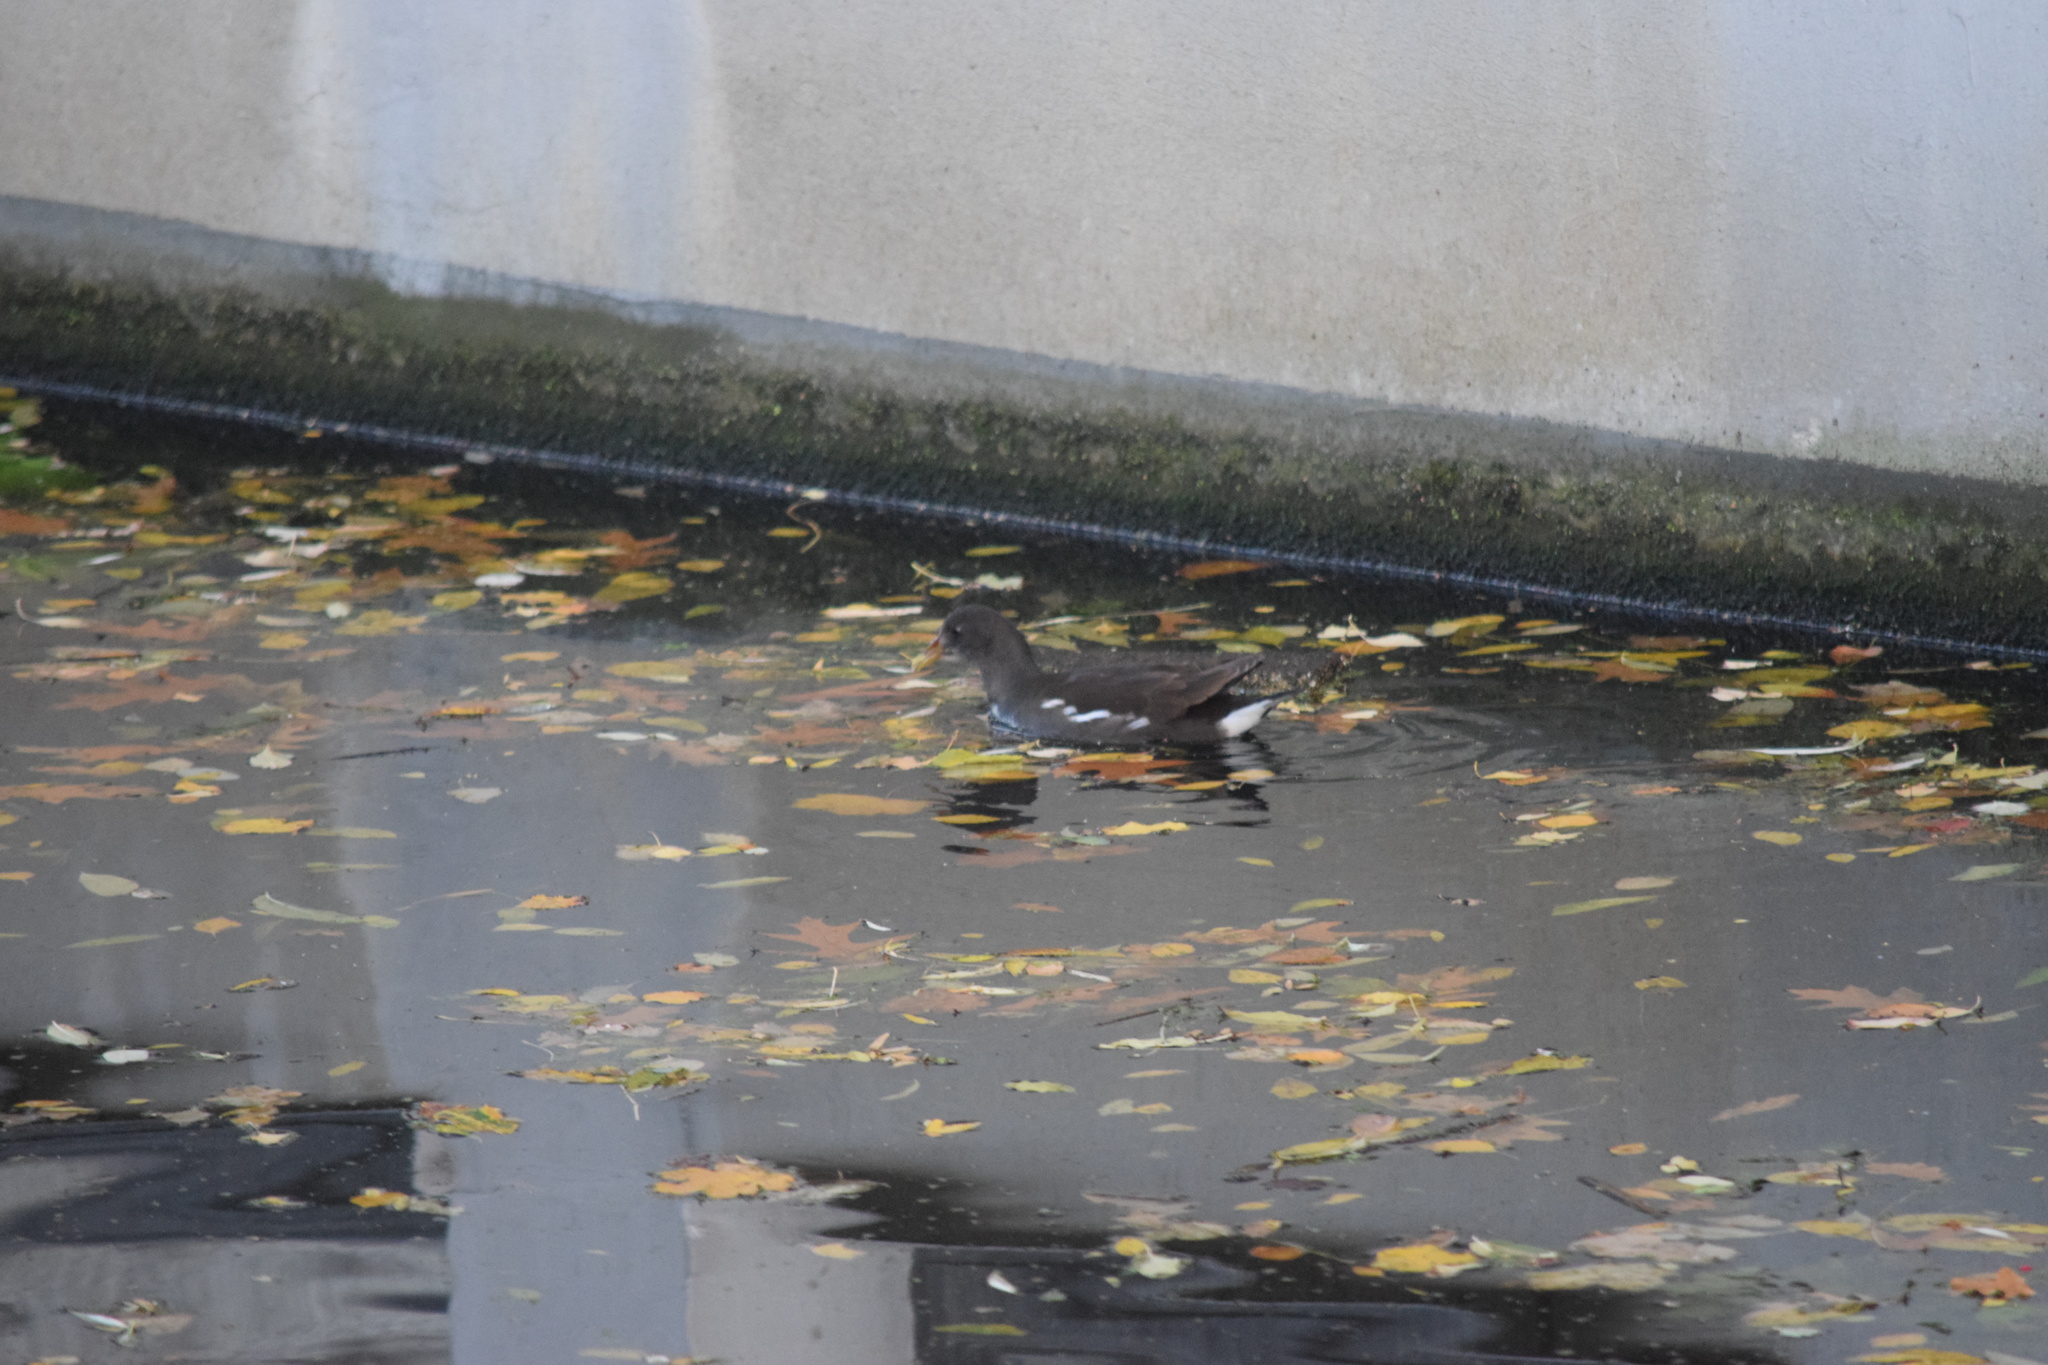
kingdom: Animalia
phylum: Chordata
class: Aves
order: Gruiformes
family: Rallidae
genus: Gallinula
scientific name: Gallinula chloropus
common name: Common moorhen
